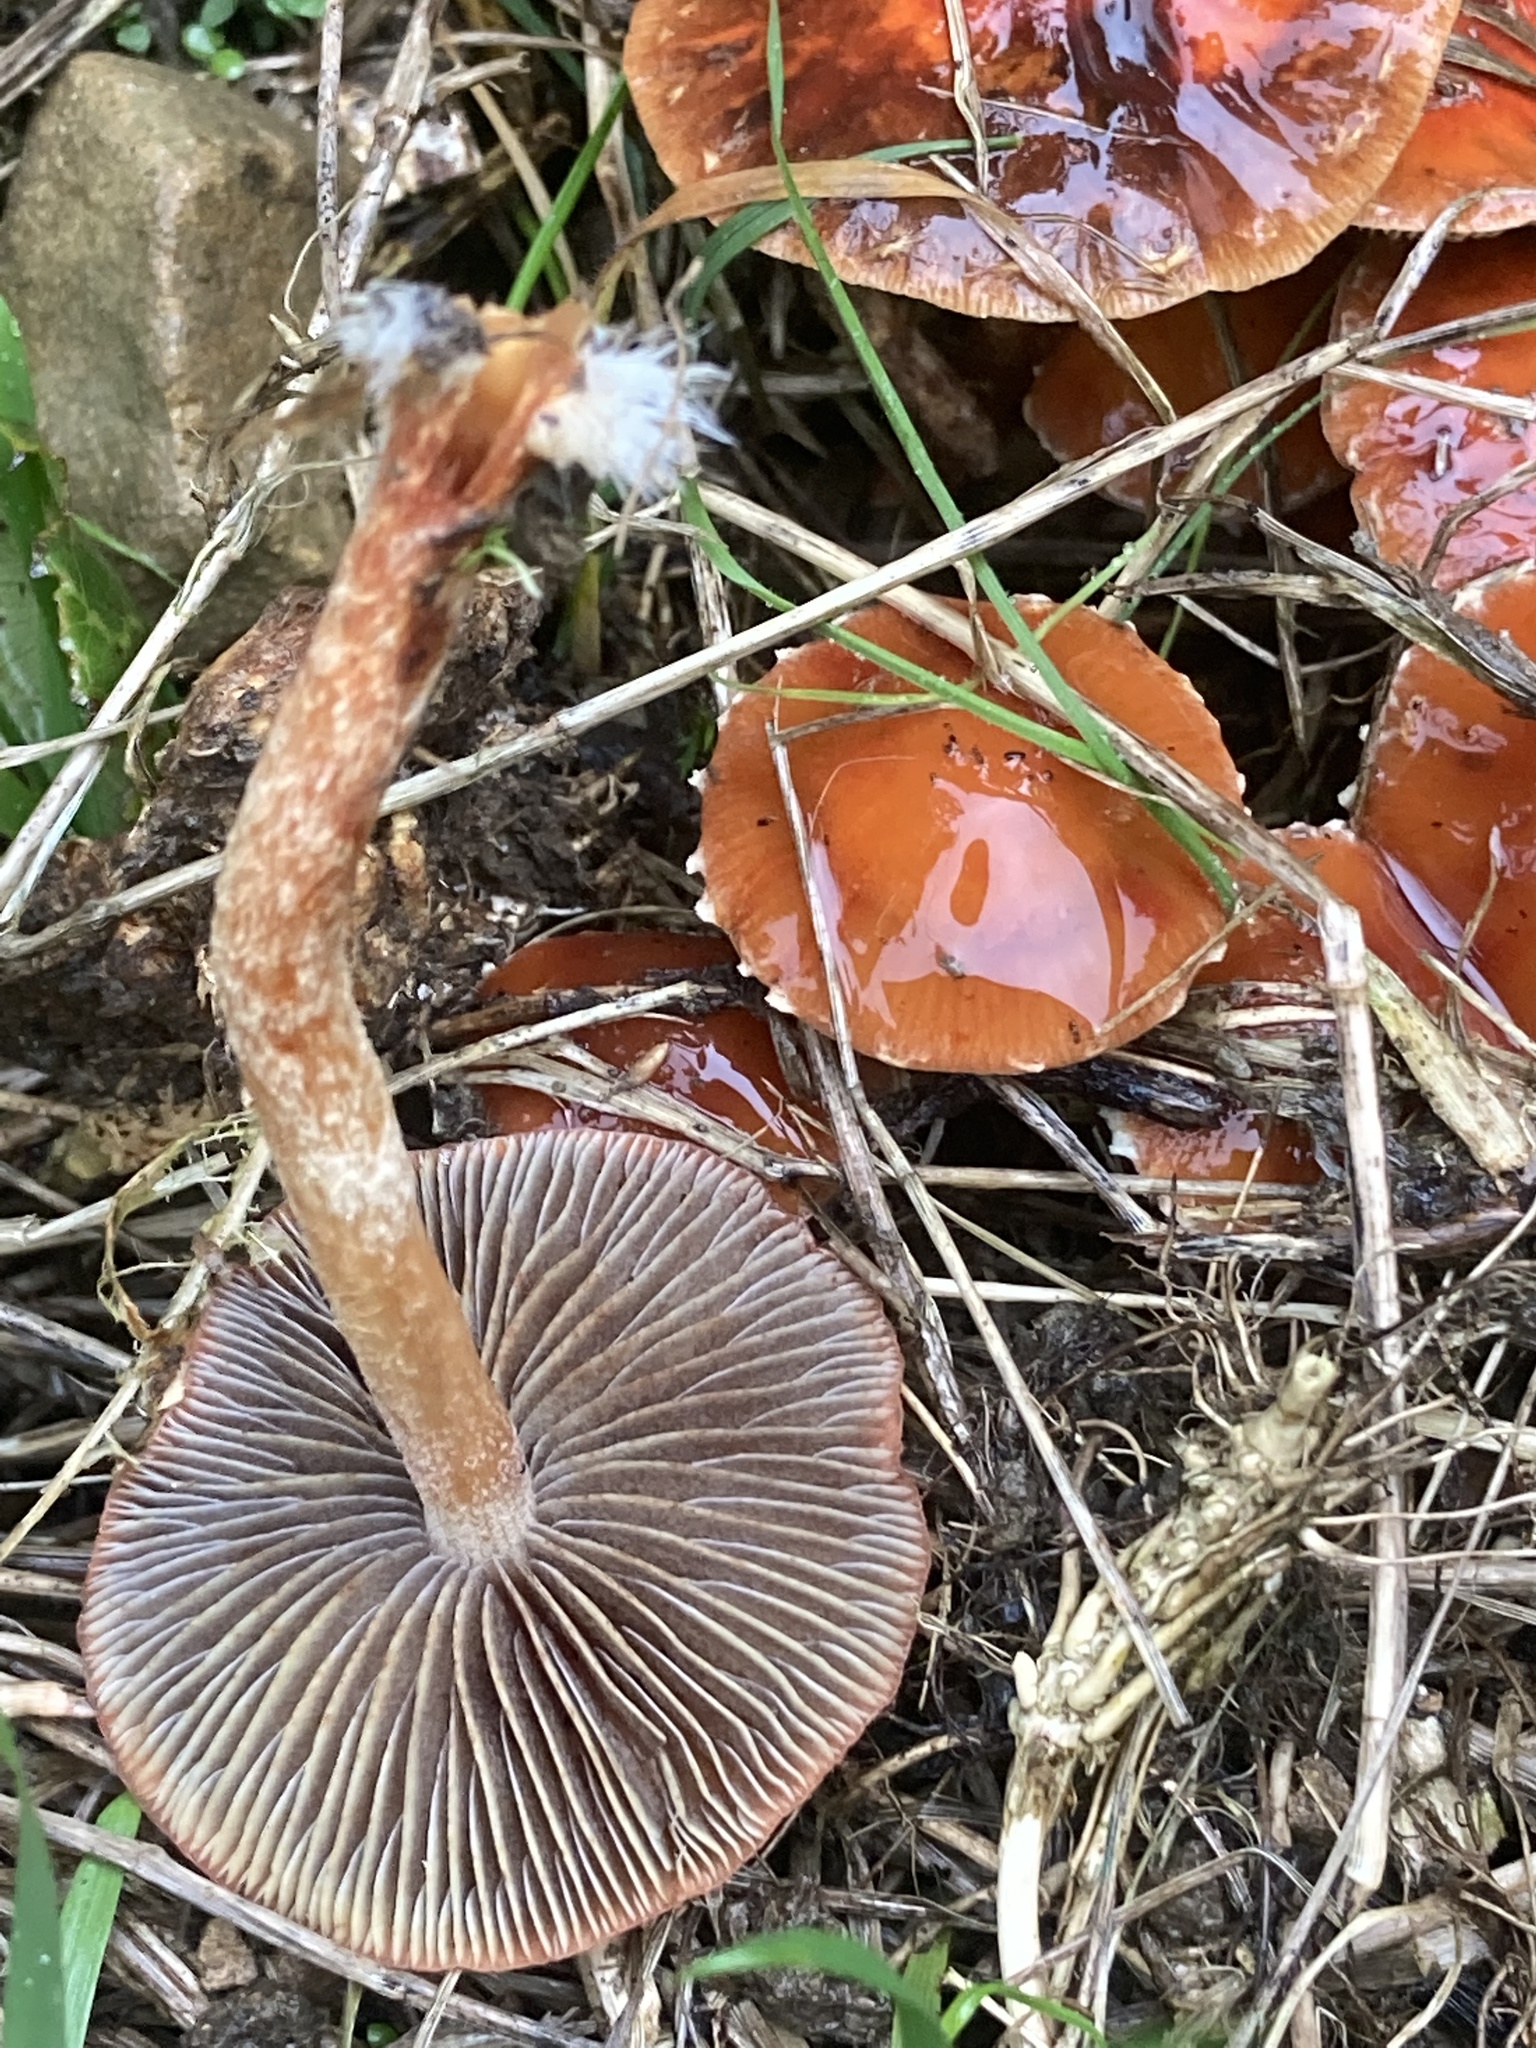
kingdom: Fungi
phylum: Basidiomycota
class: Agaricomycetes
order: Agaricales
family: Strophariaceae
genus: Leratiomyces
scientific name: Leratiomyces ceres
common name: Redlead roundhead
